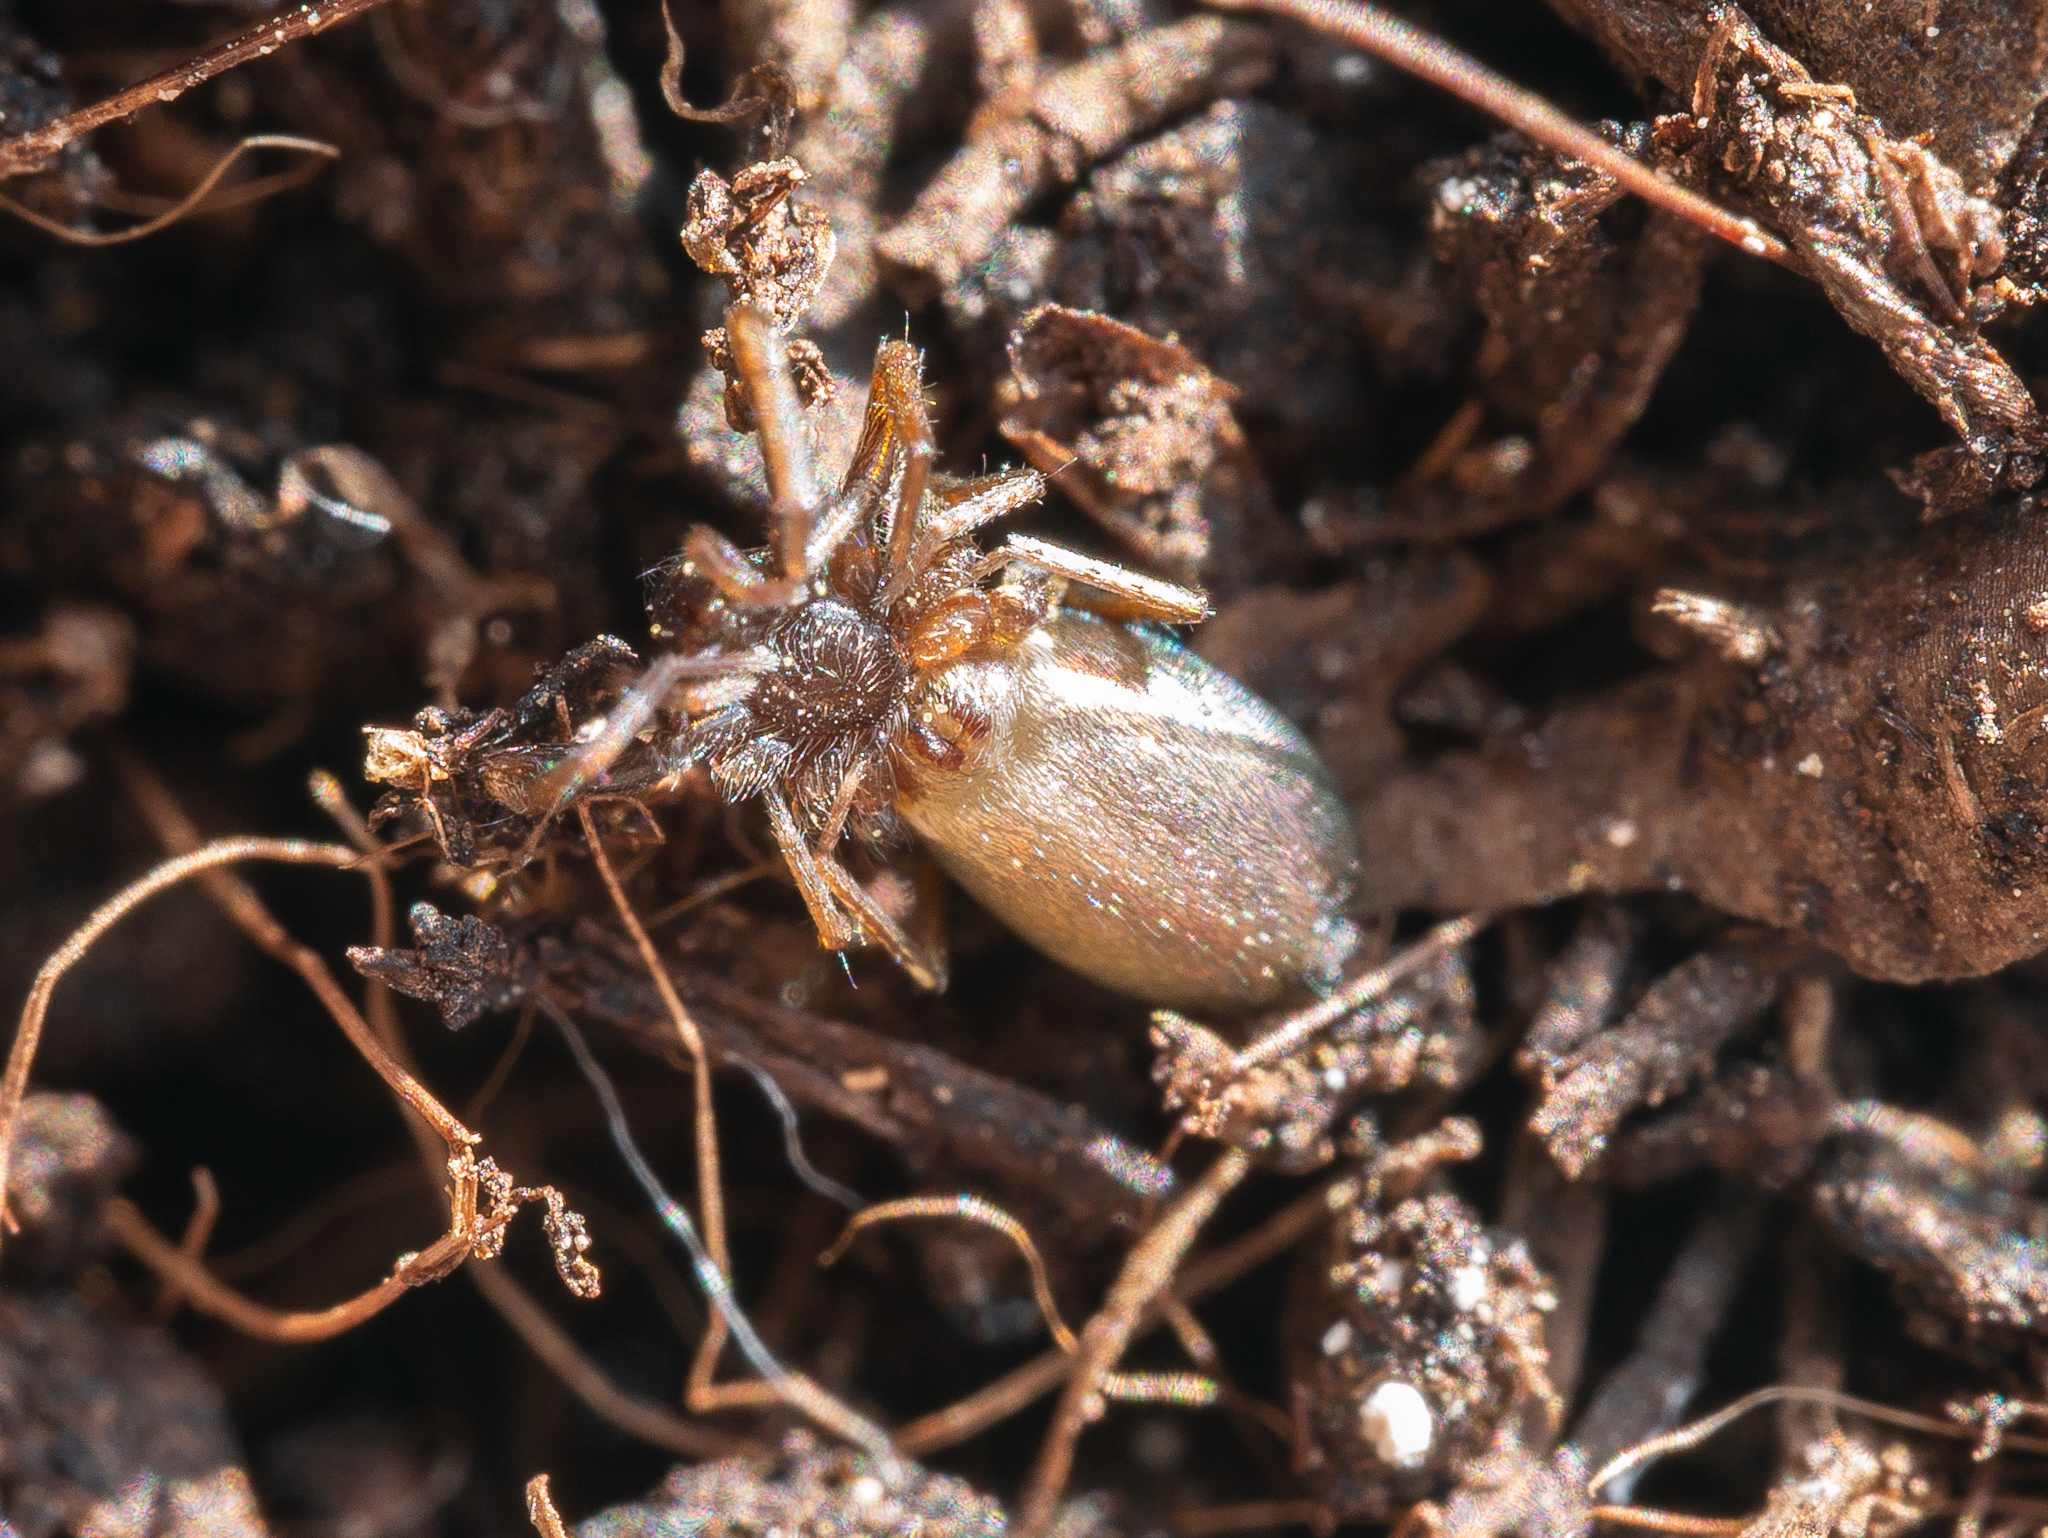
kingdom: Animalia
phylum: Arthropoda
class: Arachnida
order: Araneae
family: Gnaphosidae
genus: Micaria
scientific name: Micaria subopaca
